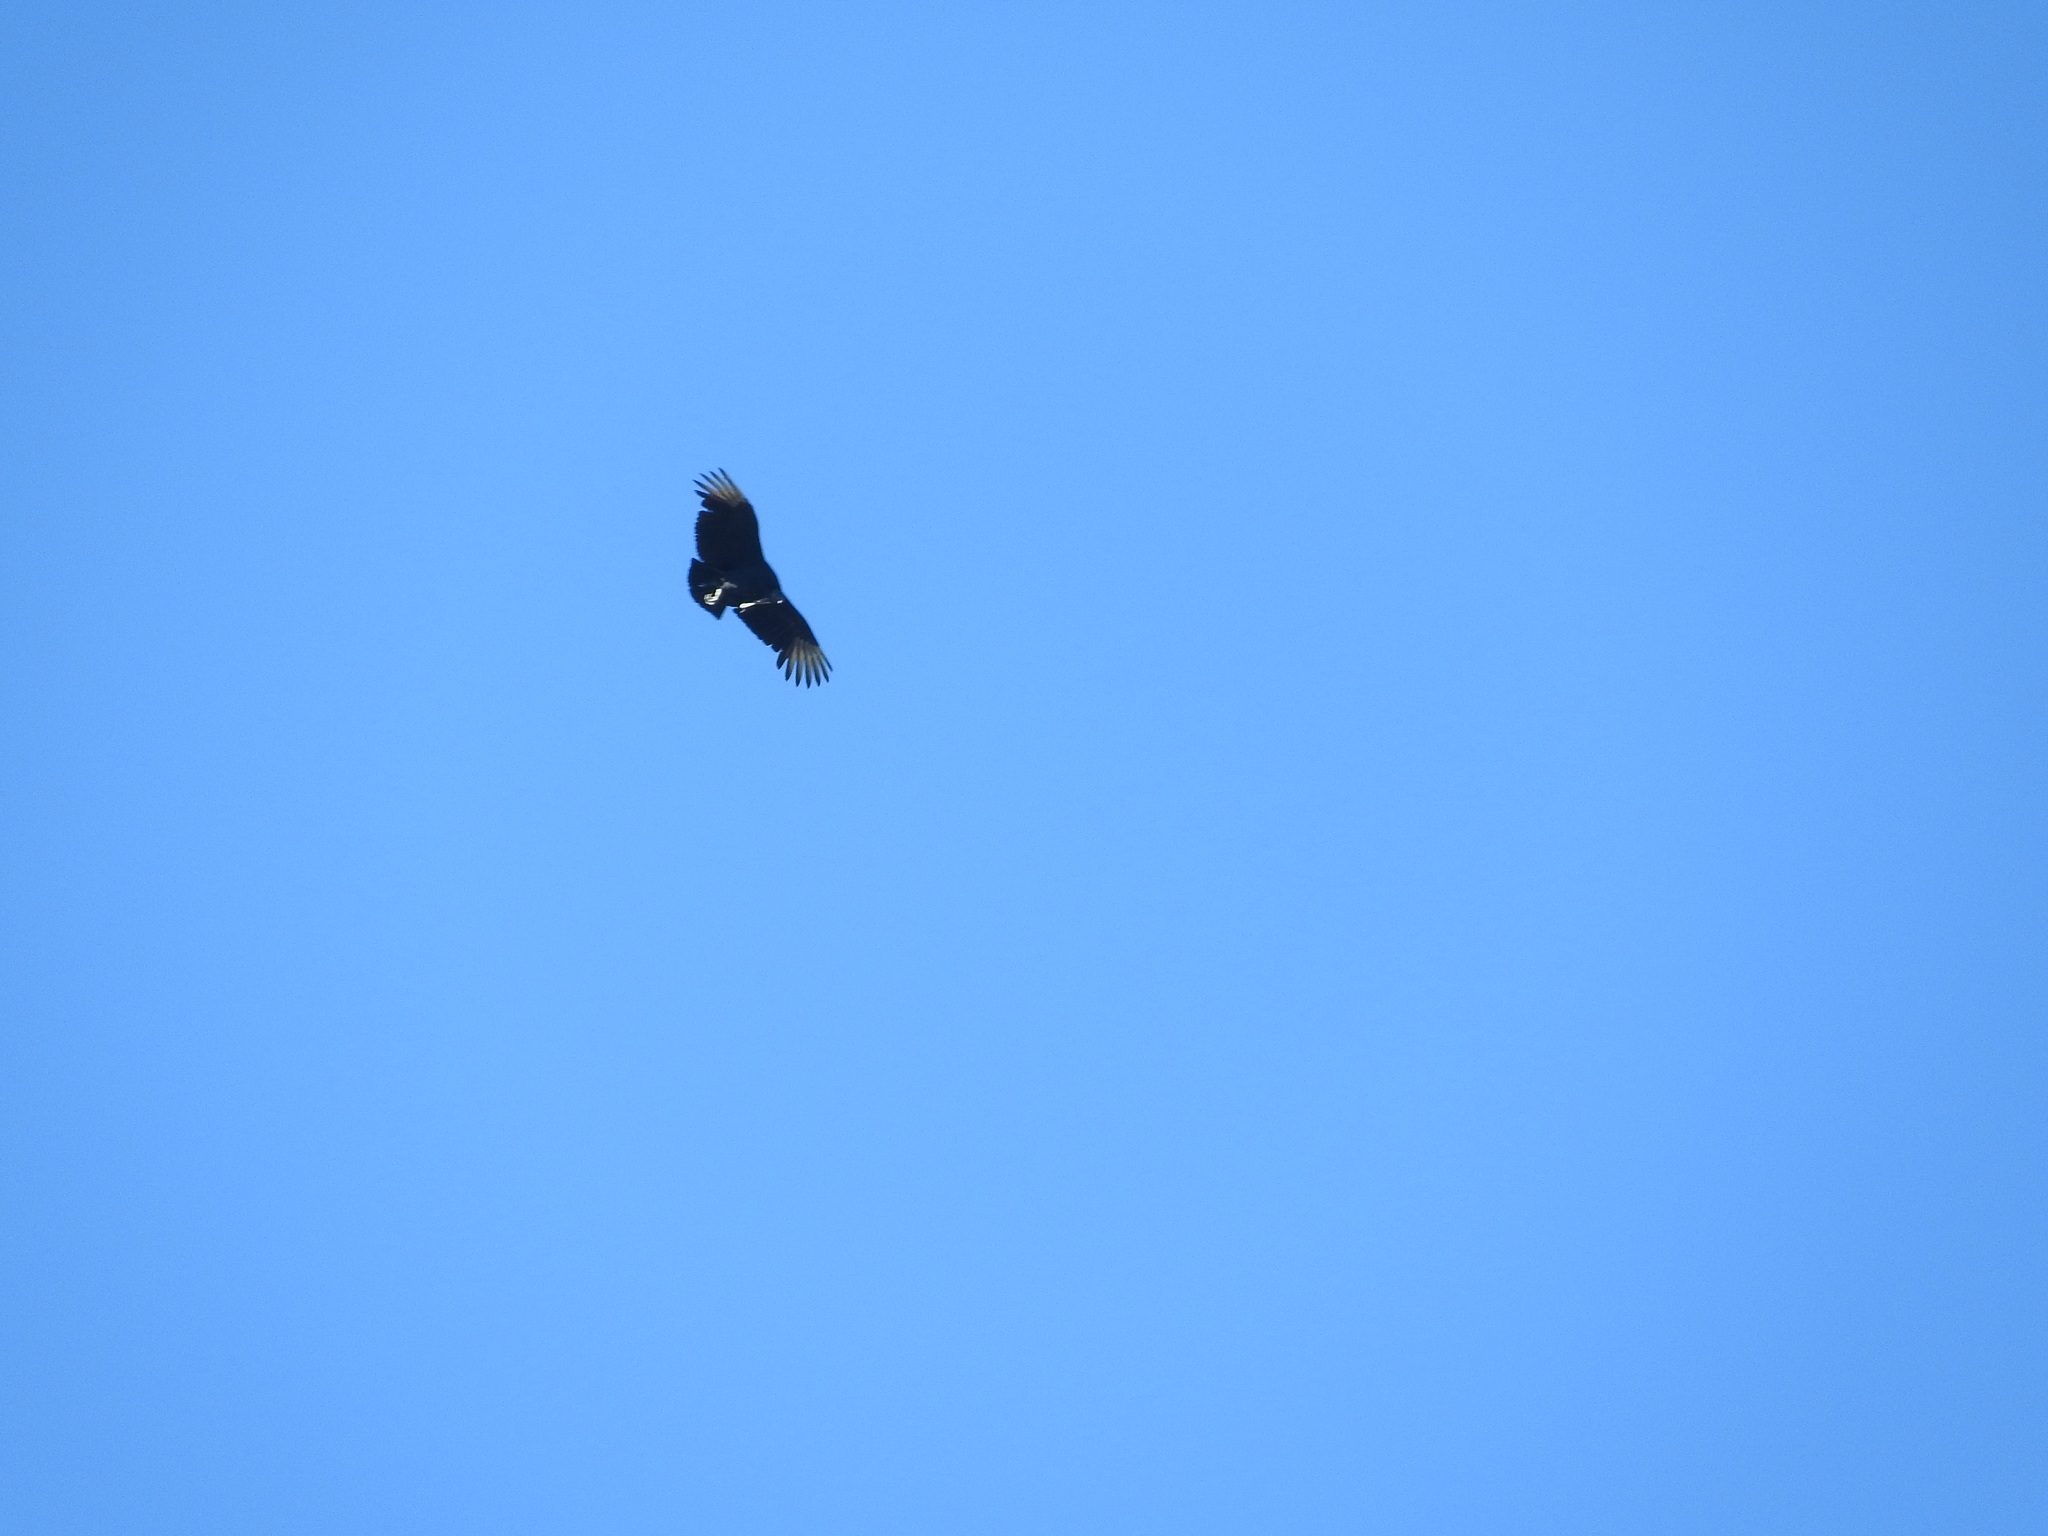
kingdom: Animalia
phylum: Chordata
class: Aves
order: Accipitriformes
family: Cathartidae
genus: Coragyps
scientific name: Coragyps atratus
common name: Black vulture
